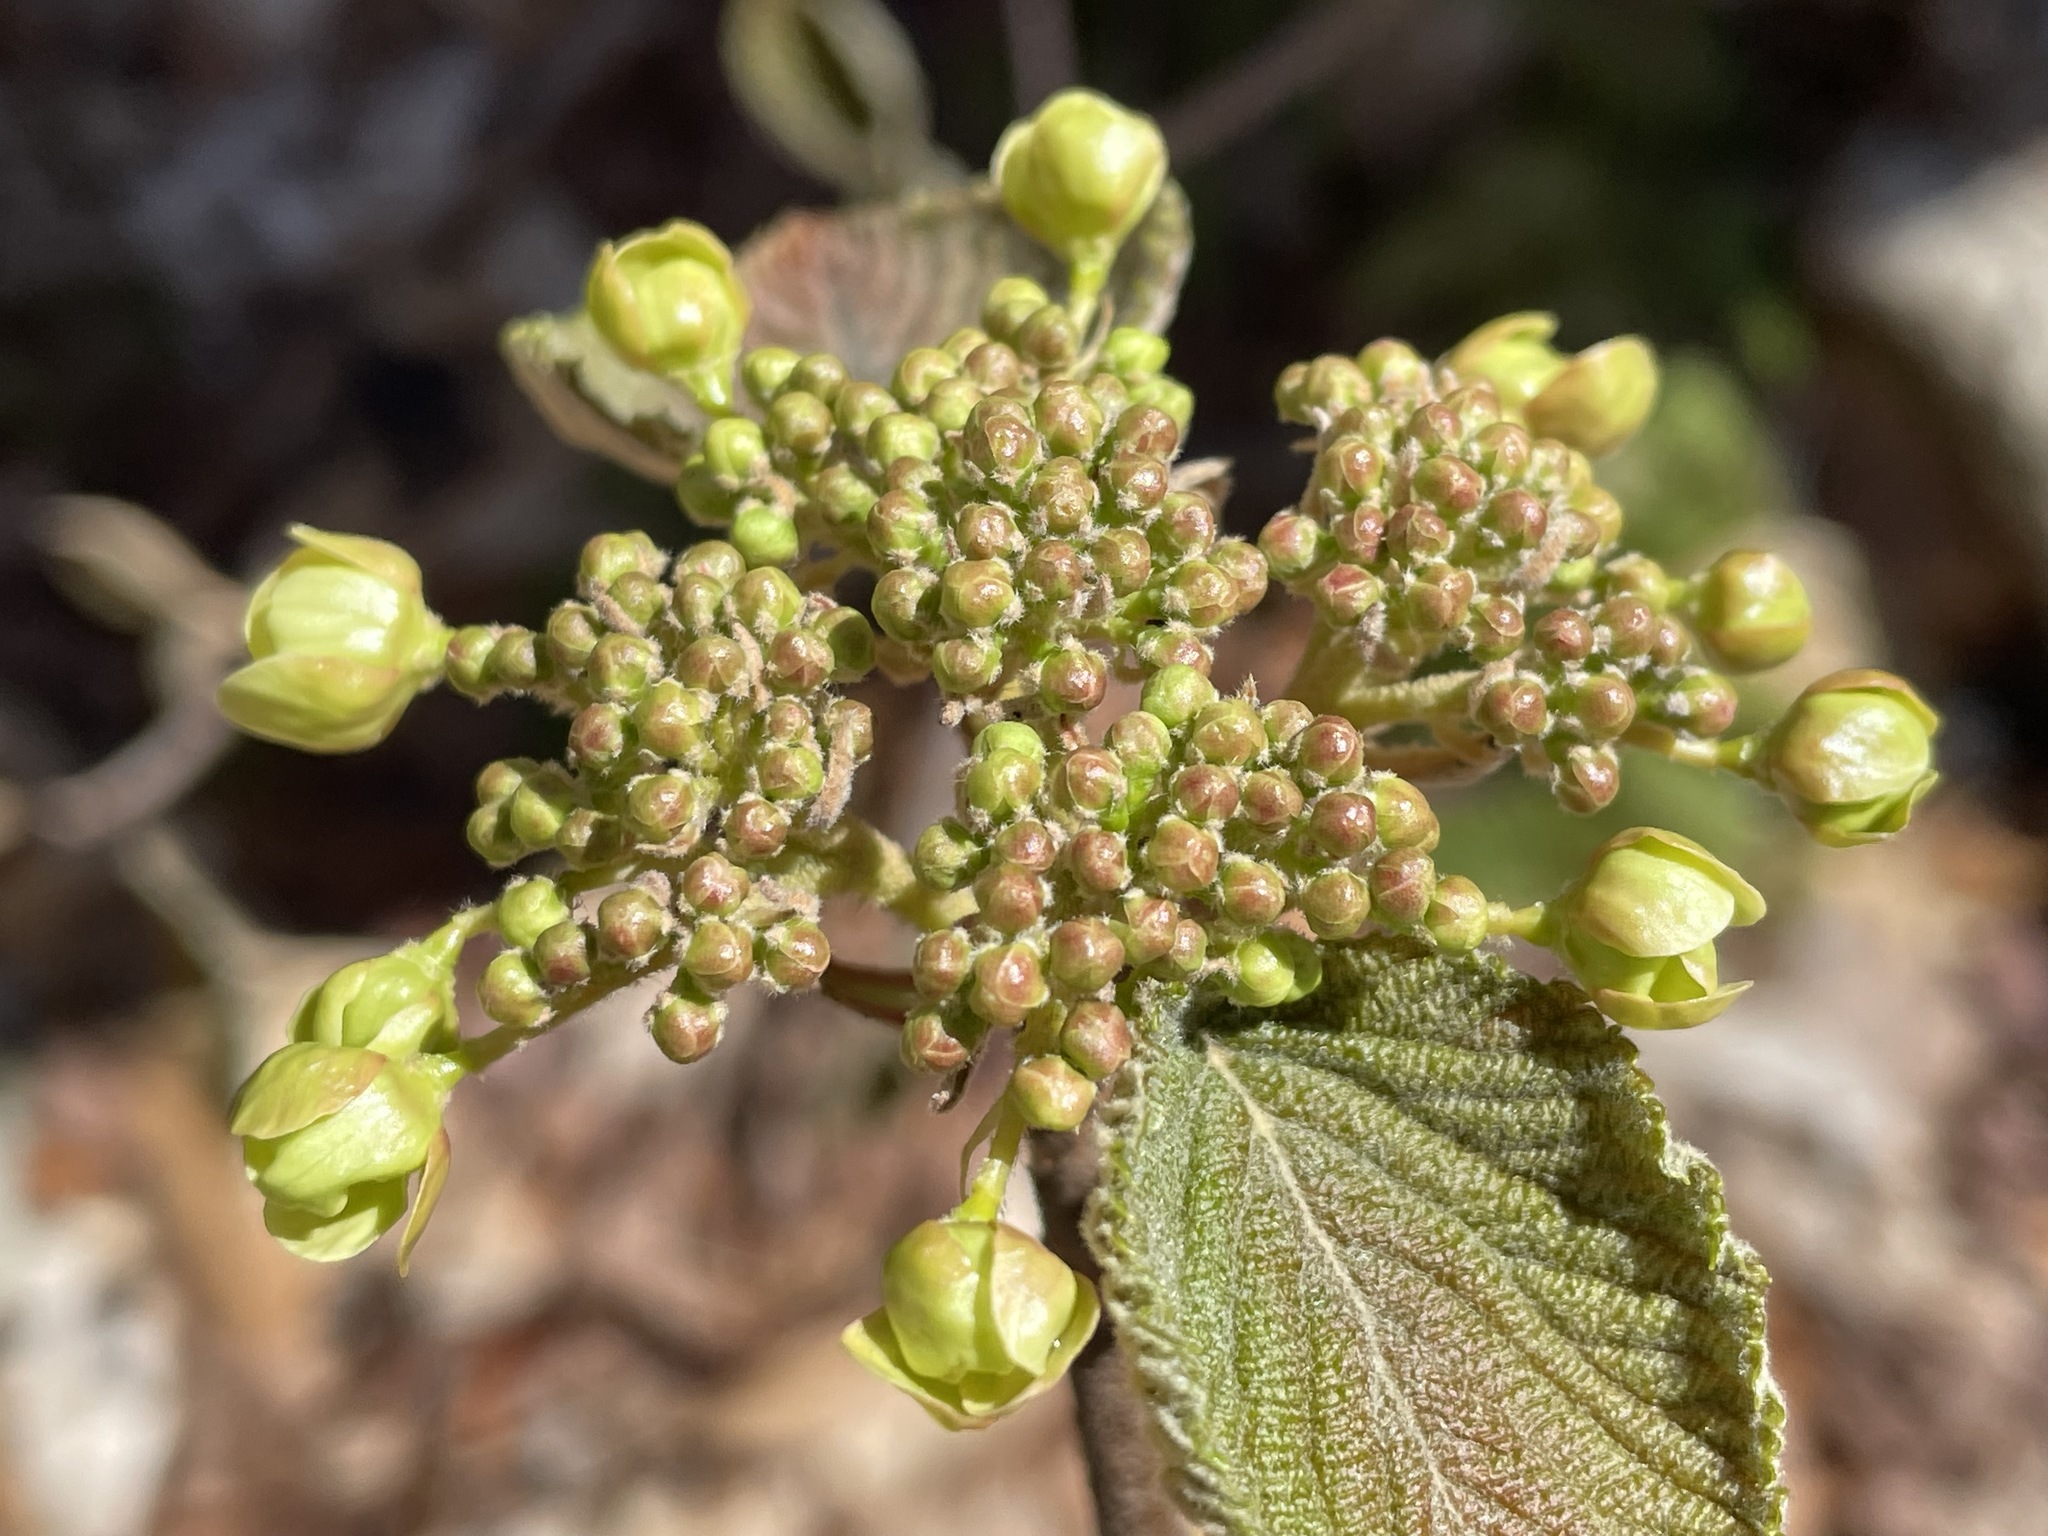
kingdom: Plantae
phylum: Tracheophyta
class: Magnoliopsida
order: Dipsacales
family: Viburnaceae
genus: Viburnum
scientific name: Viburnum lantanoides
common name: Hobblebush
